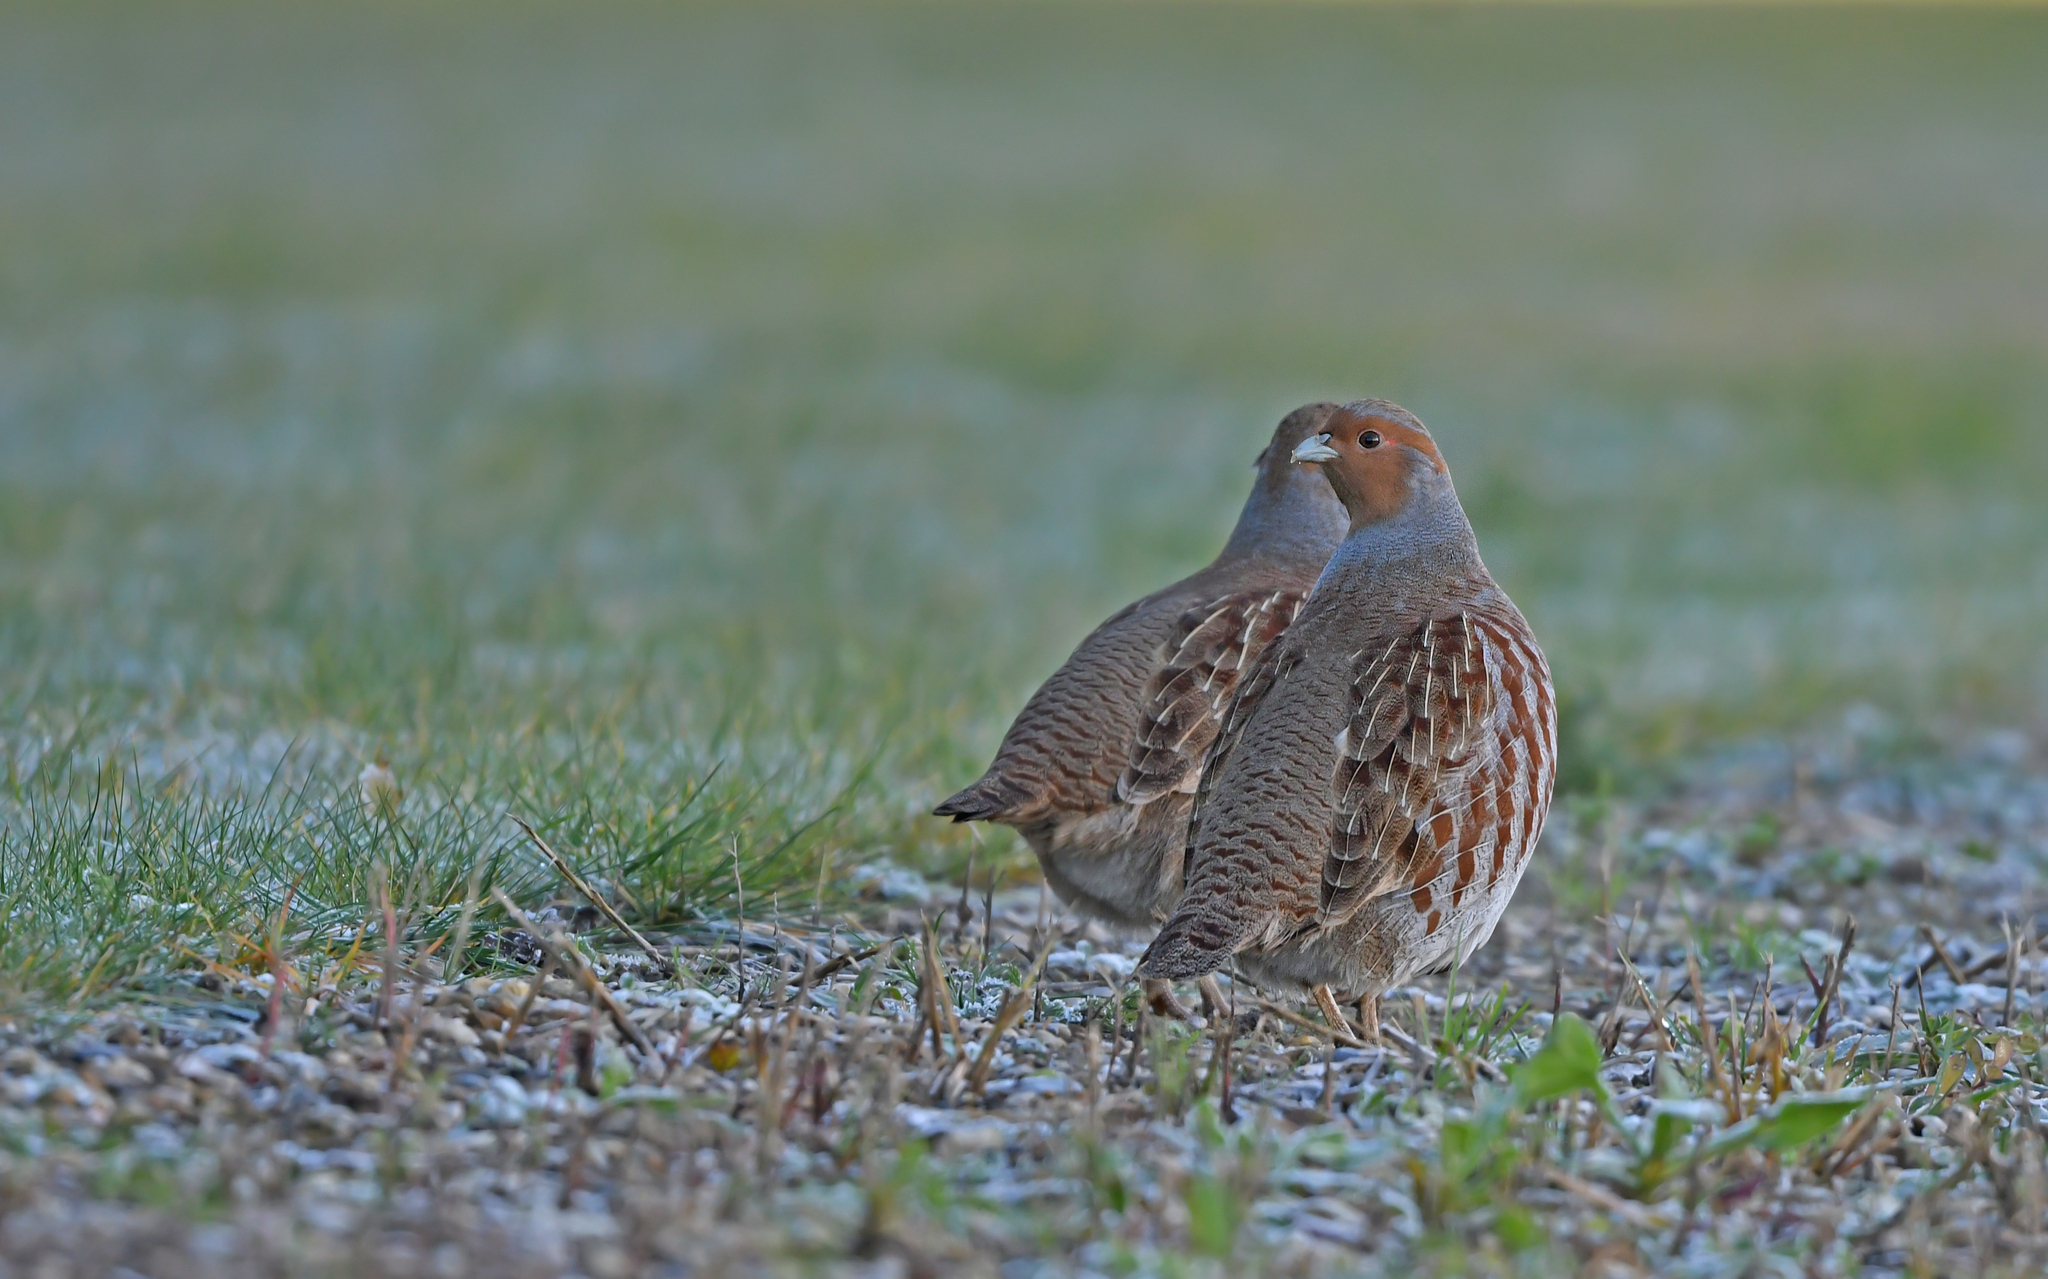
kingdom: Animalia
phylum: Chordata
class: Aves
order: Galliformes
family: Phasianidae
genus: Perdix
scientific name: Perdix perdix
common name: Grey partridge
